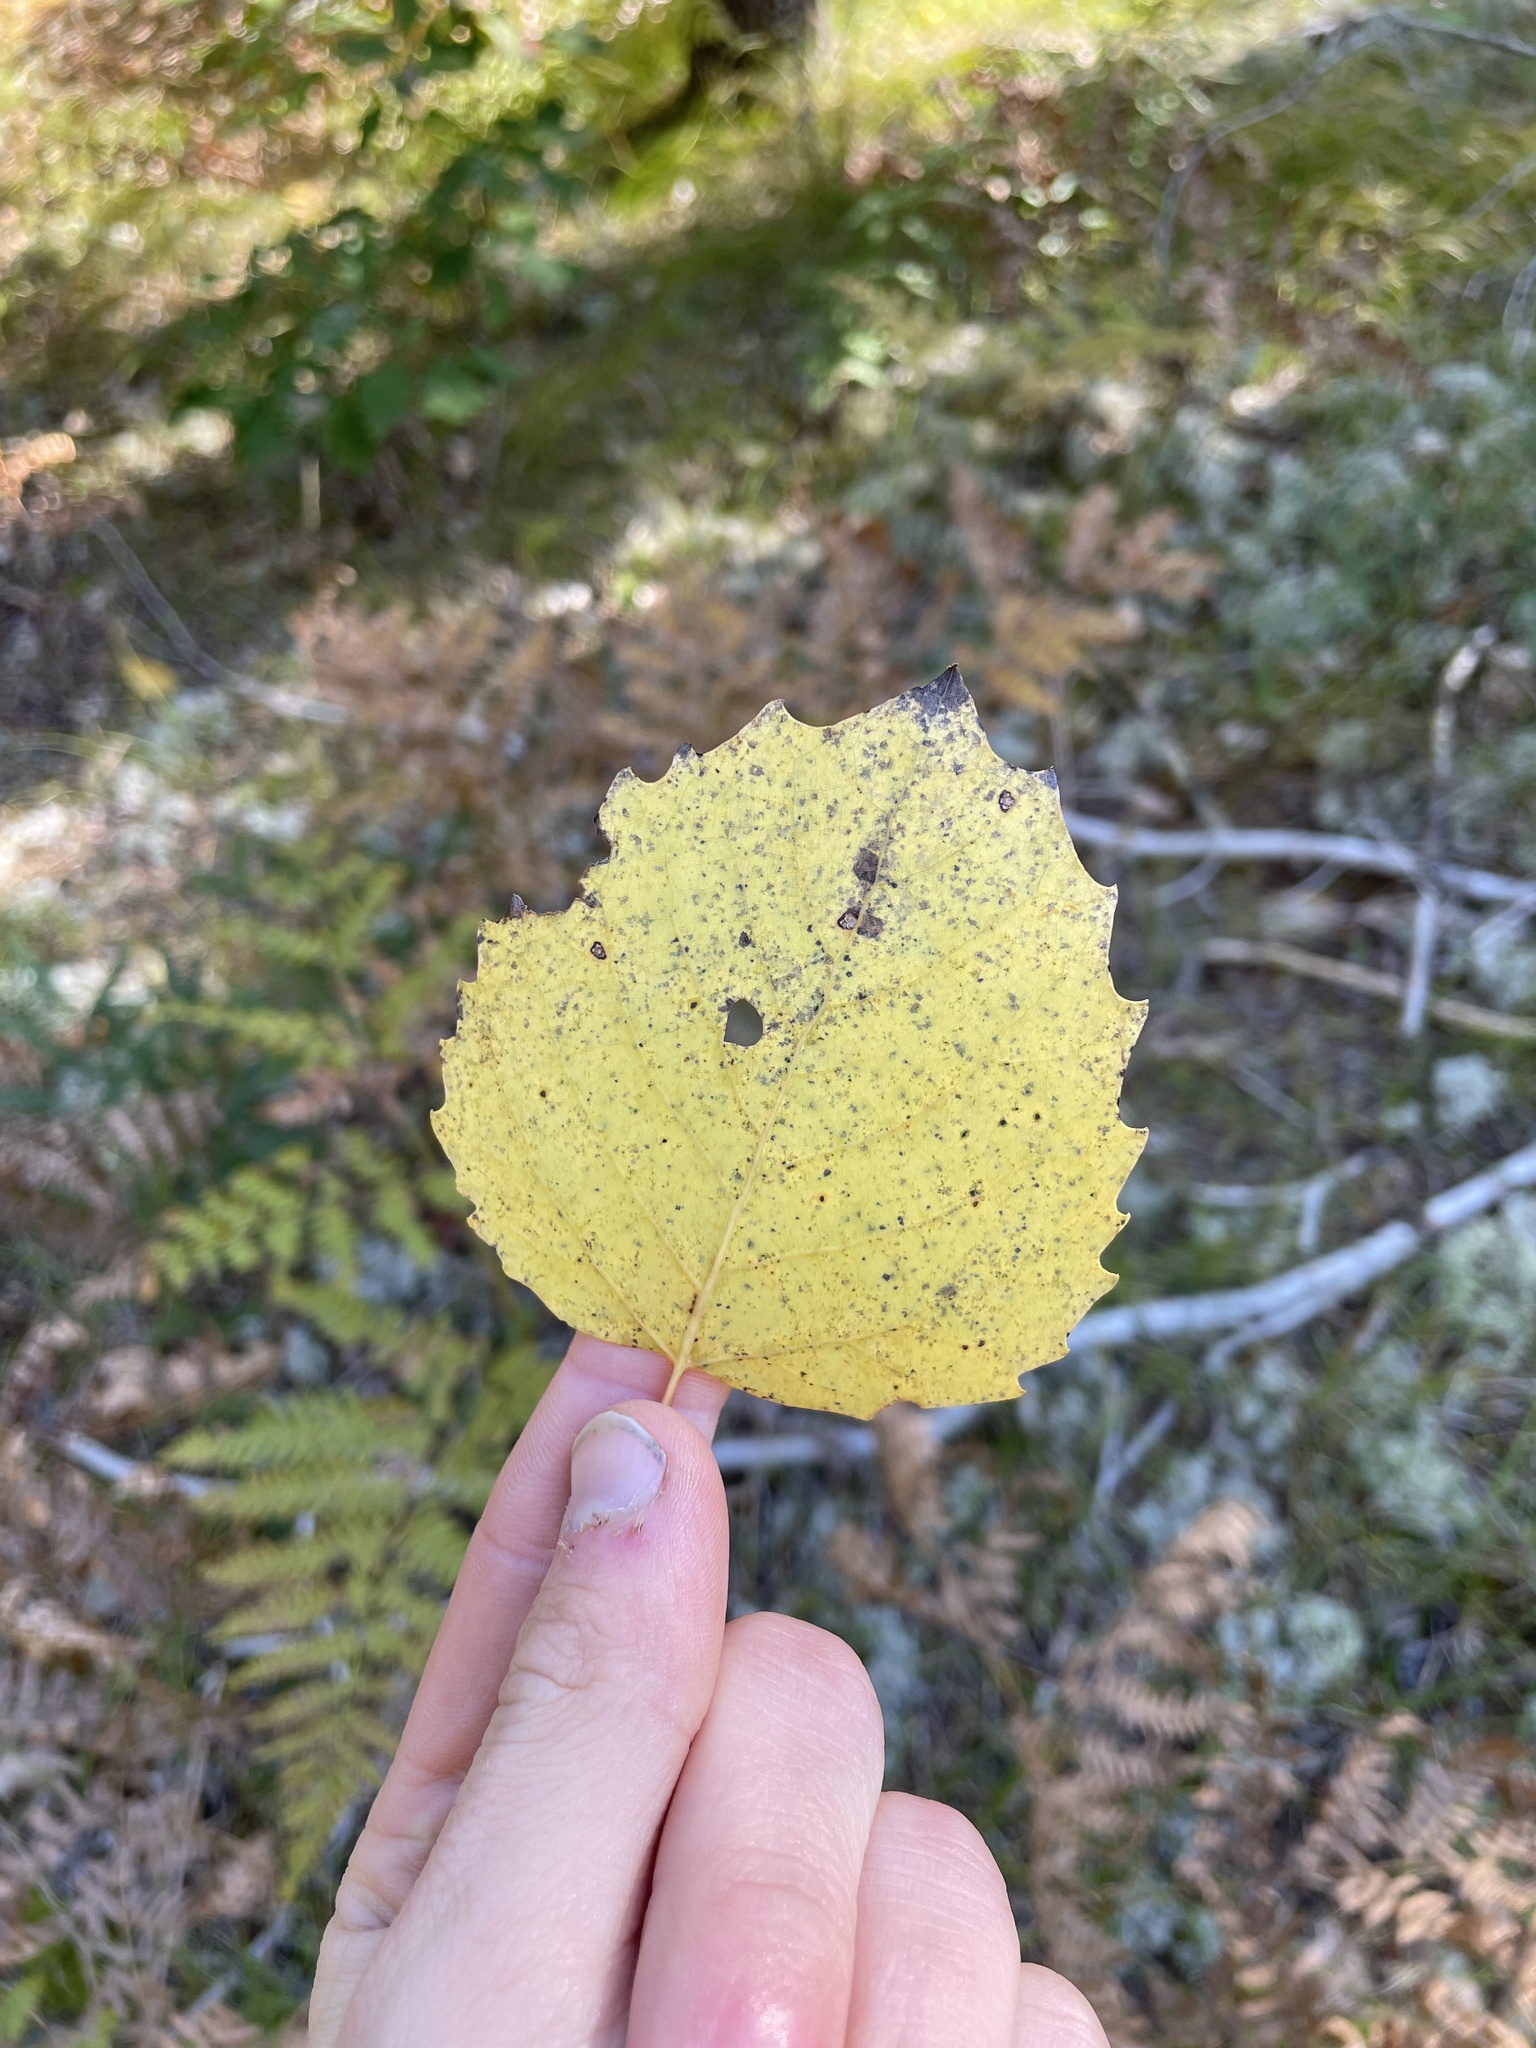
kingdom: Plantae
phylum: Tracheophyta
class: Magnoliopsida
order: Malpighiales
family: Salicaceae
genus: Populus
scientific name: Populus grandidentata
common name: Bigtooth aspen
